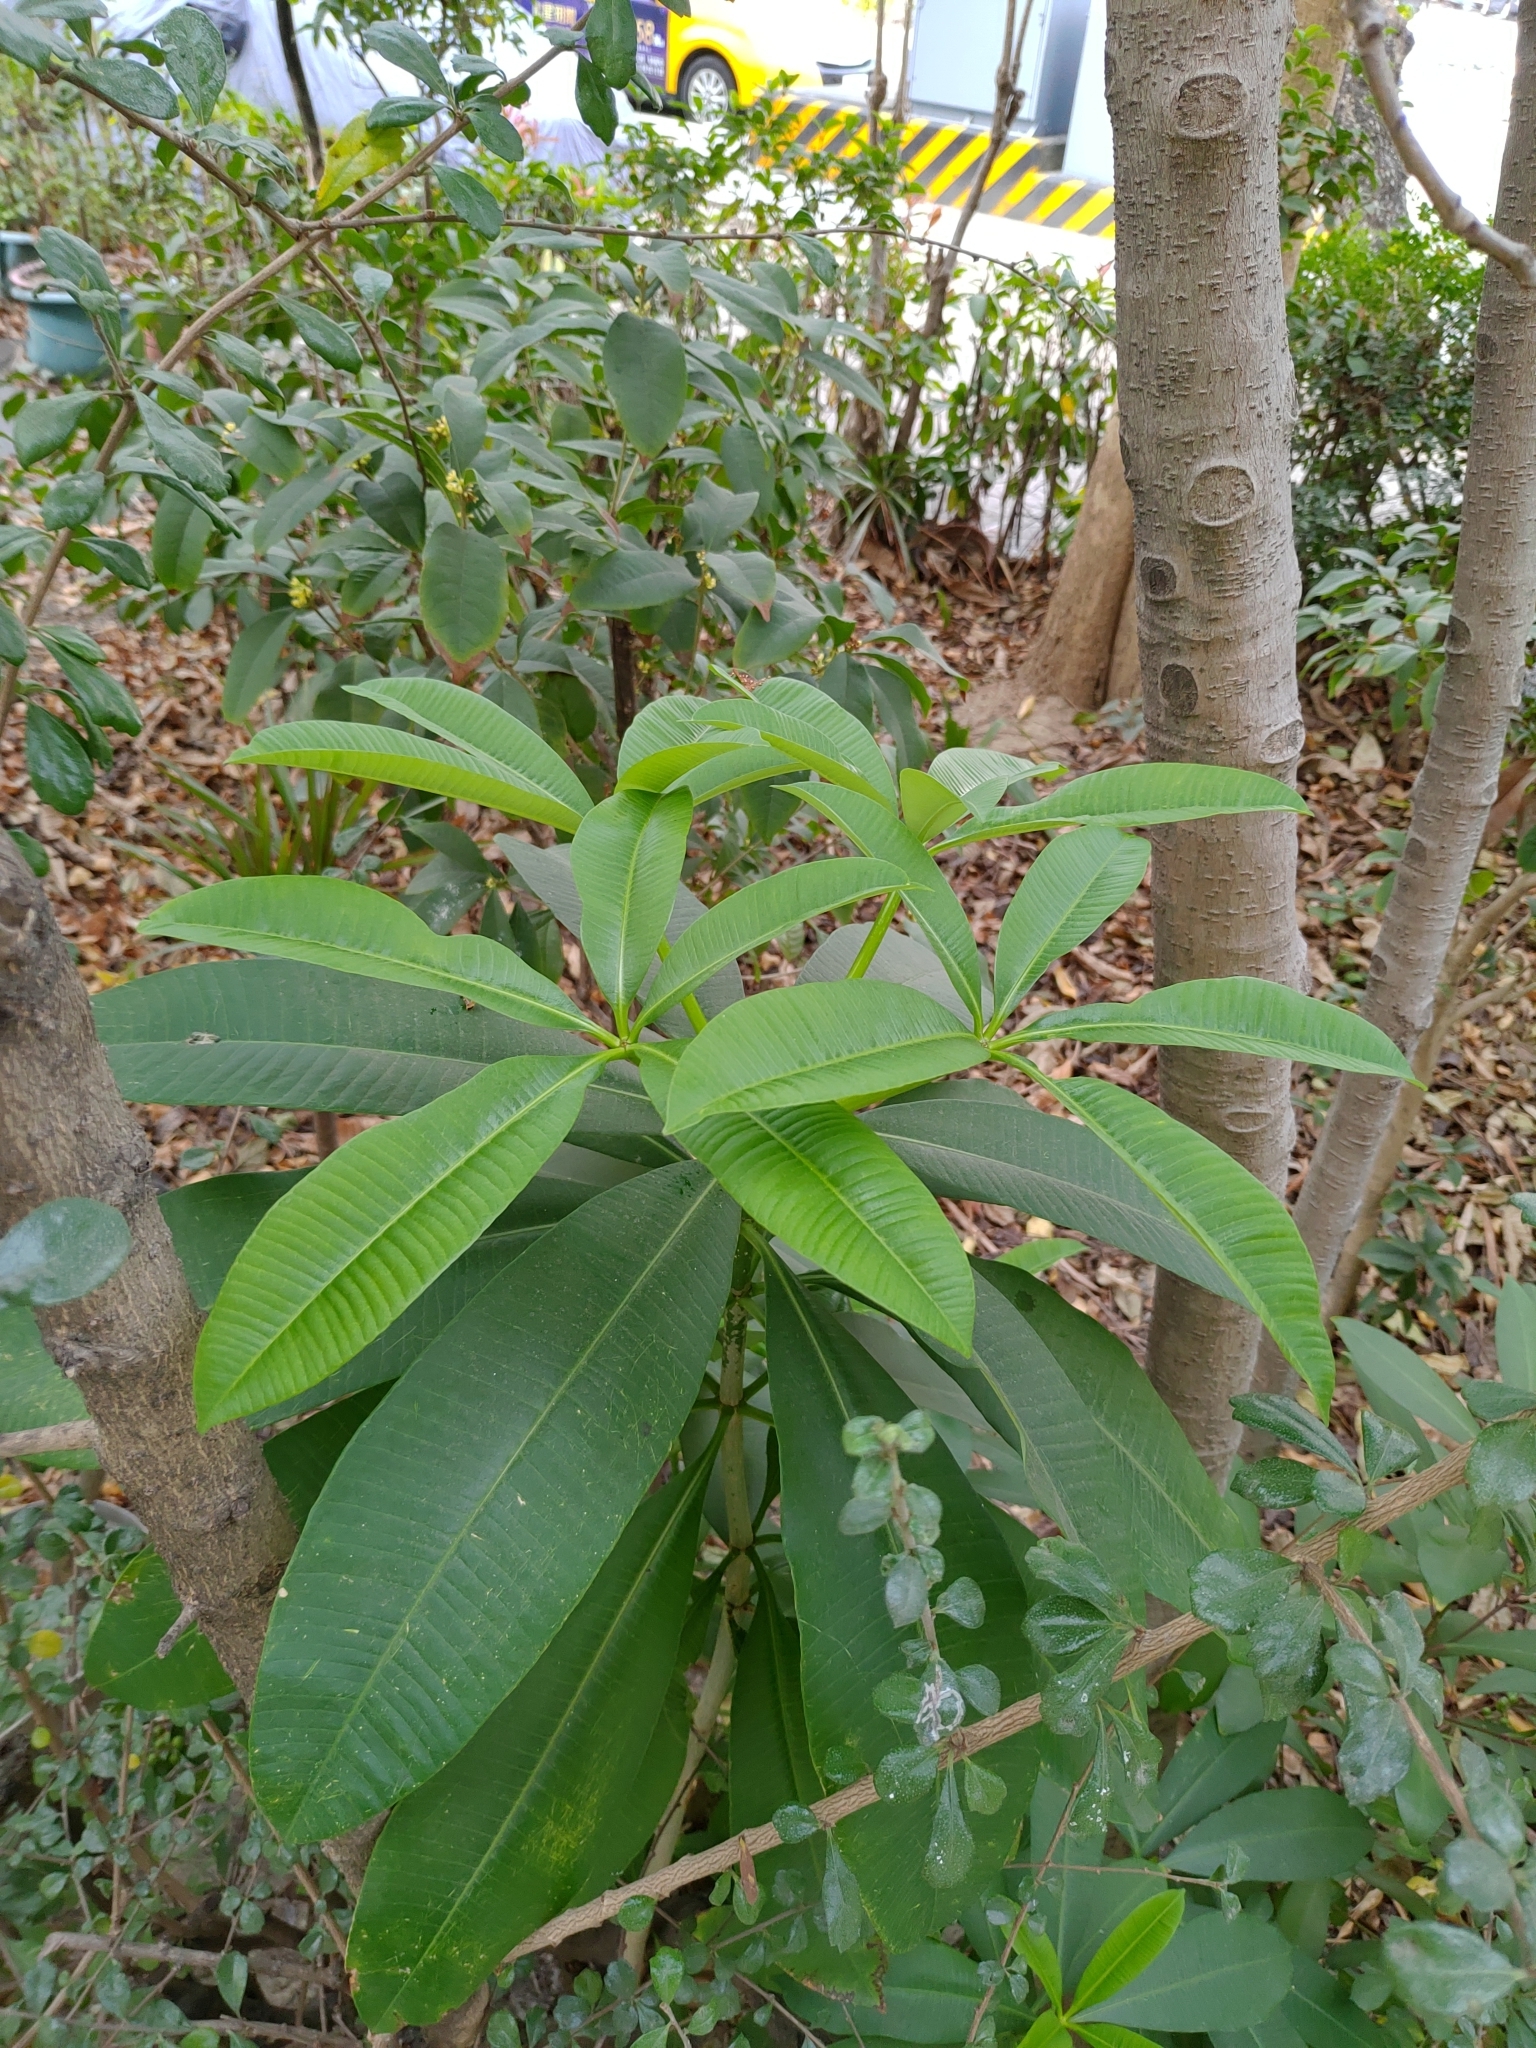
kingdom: Plantae
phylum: Tracheophyta
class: Magnoliopsida
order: Gentianales
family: Apocynaceae
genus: Alstonia
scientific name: Alstonia scholaris
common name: White cheesewood
